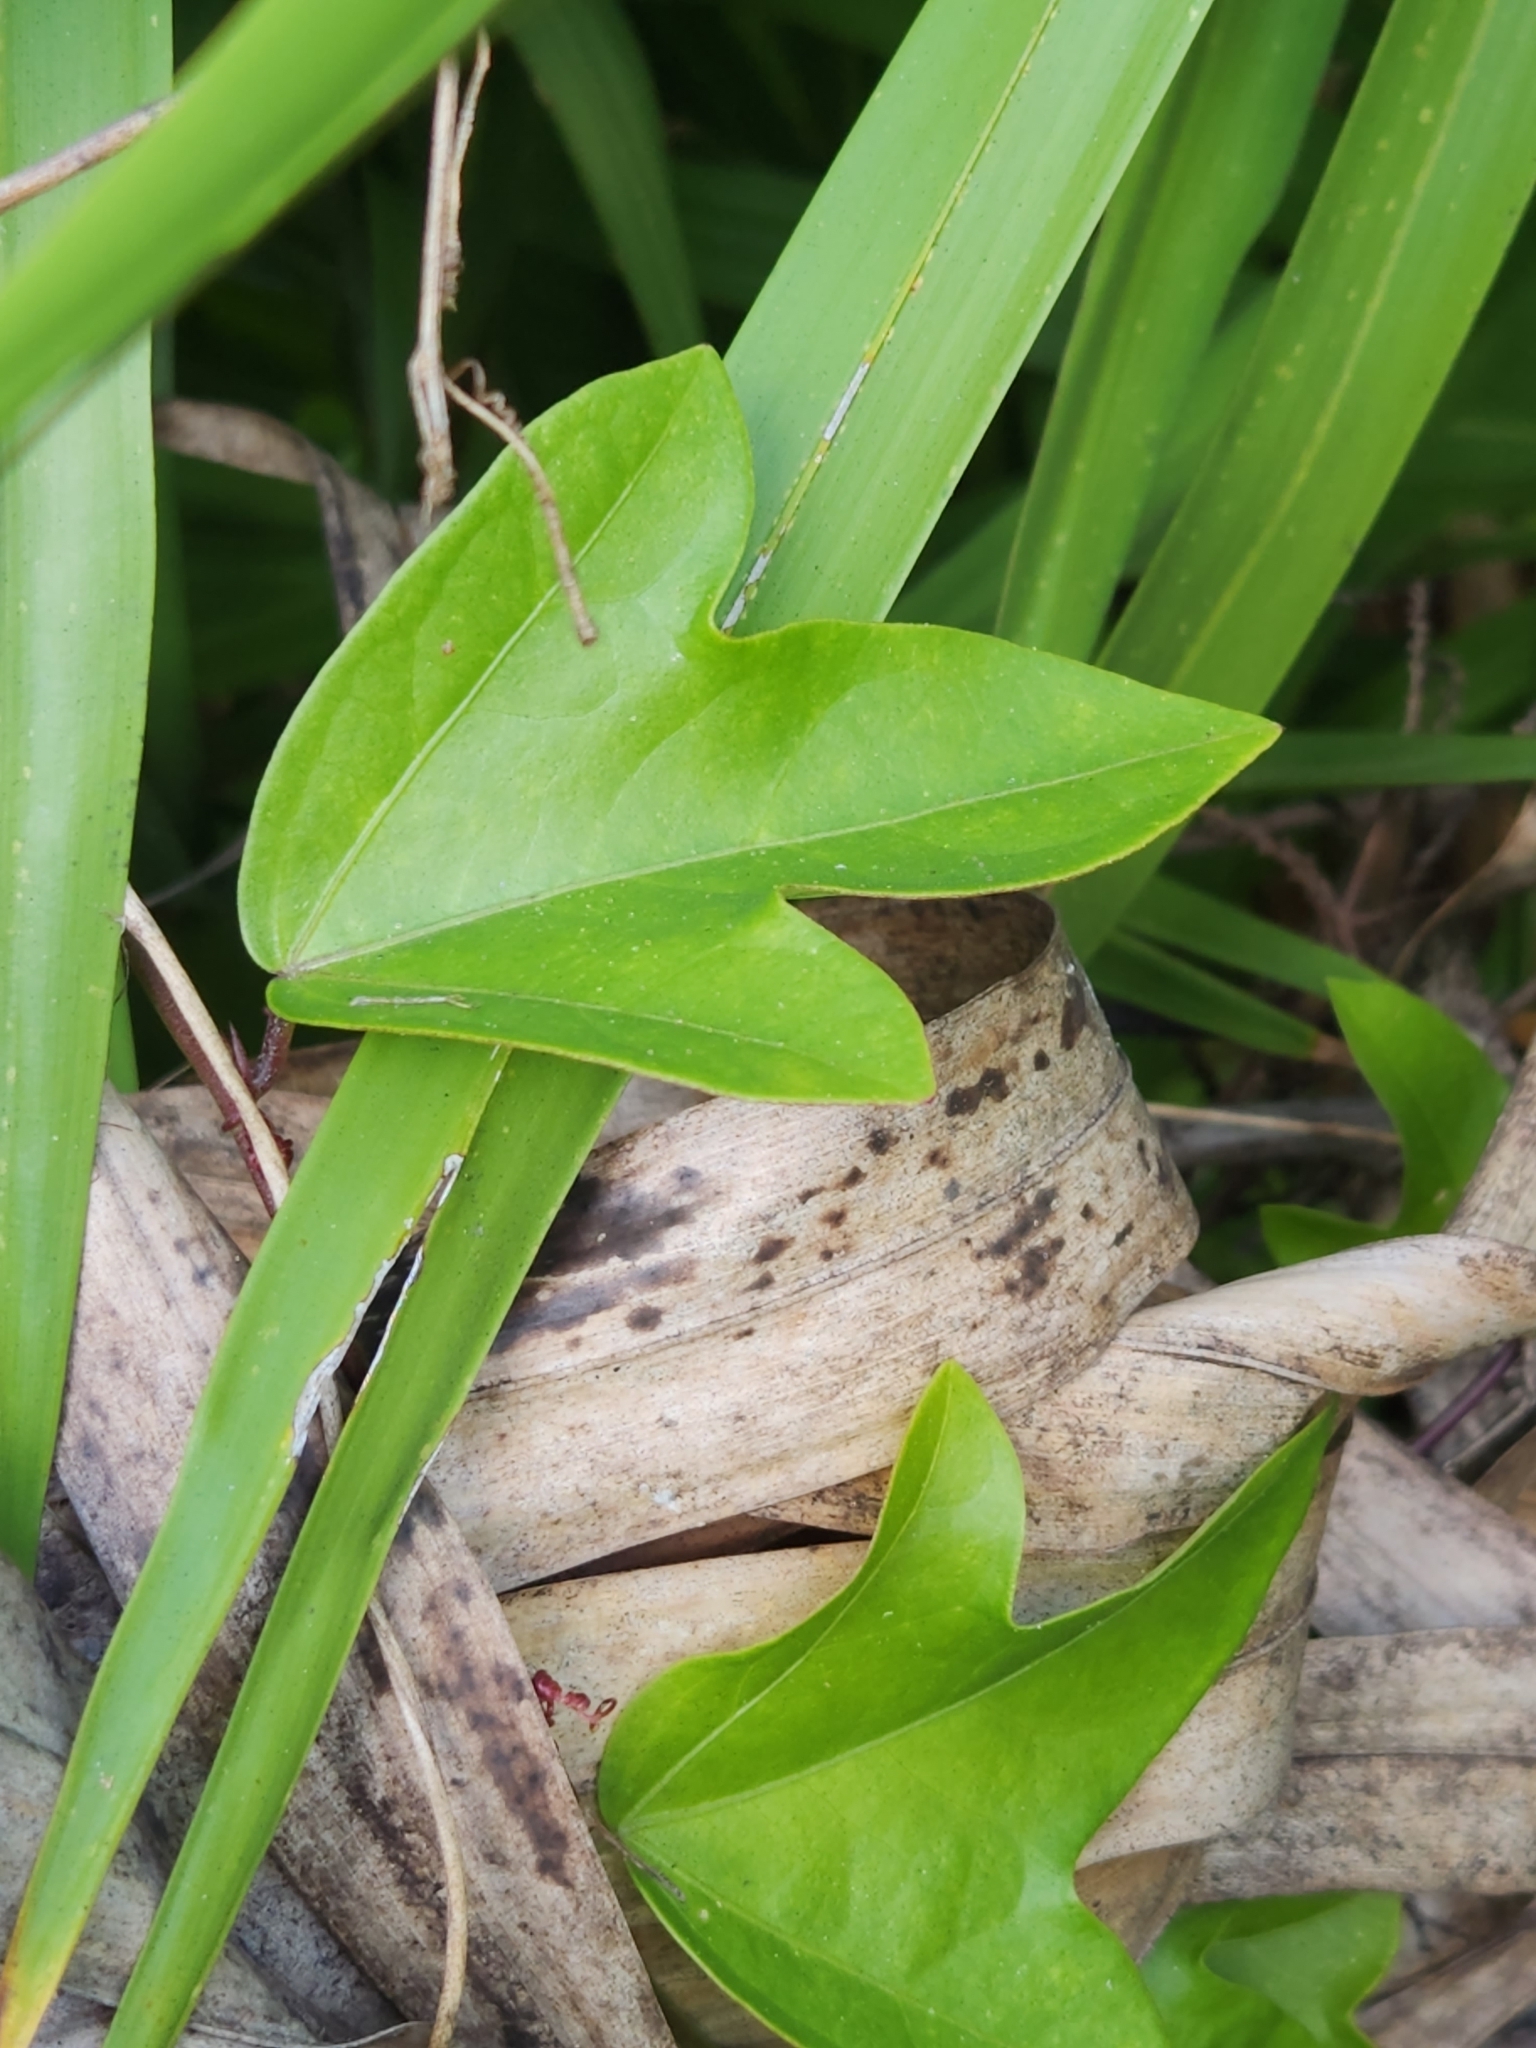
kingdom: Plantae
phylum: Tracheophyta
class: Magnoliopsida
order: Malpighiales
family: Passifloraceae
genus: Passiflora
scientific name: Passiflora pallida
